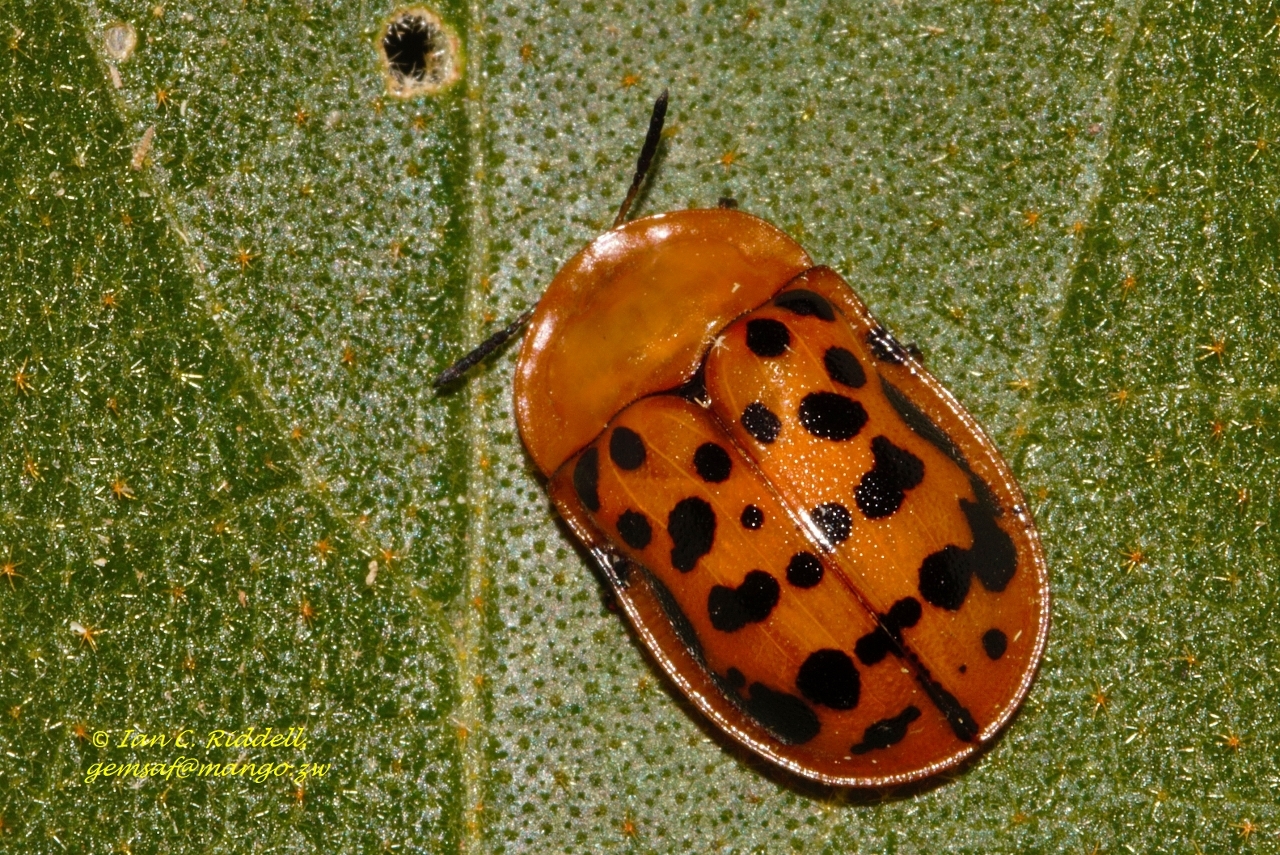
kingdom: Animalia
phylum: Arthropoda
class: Insecta
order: Coleoptera
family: Chrysomelidae
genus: Conchyloctenia
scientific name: Conchyloctenia punctata
